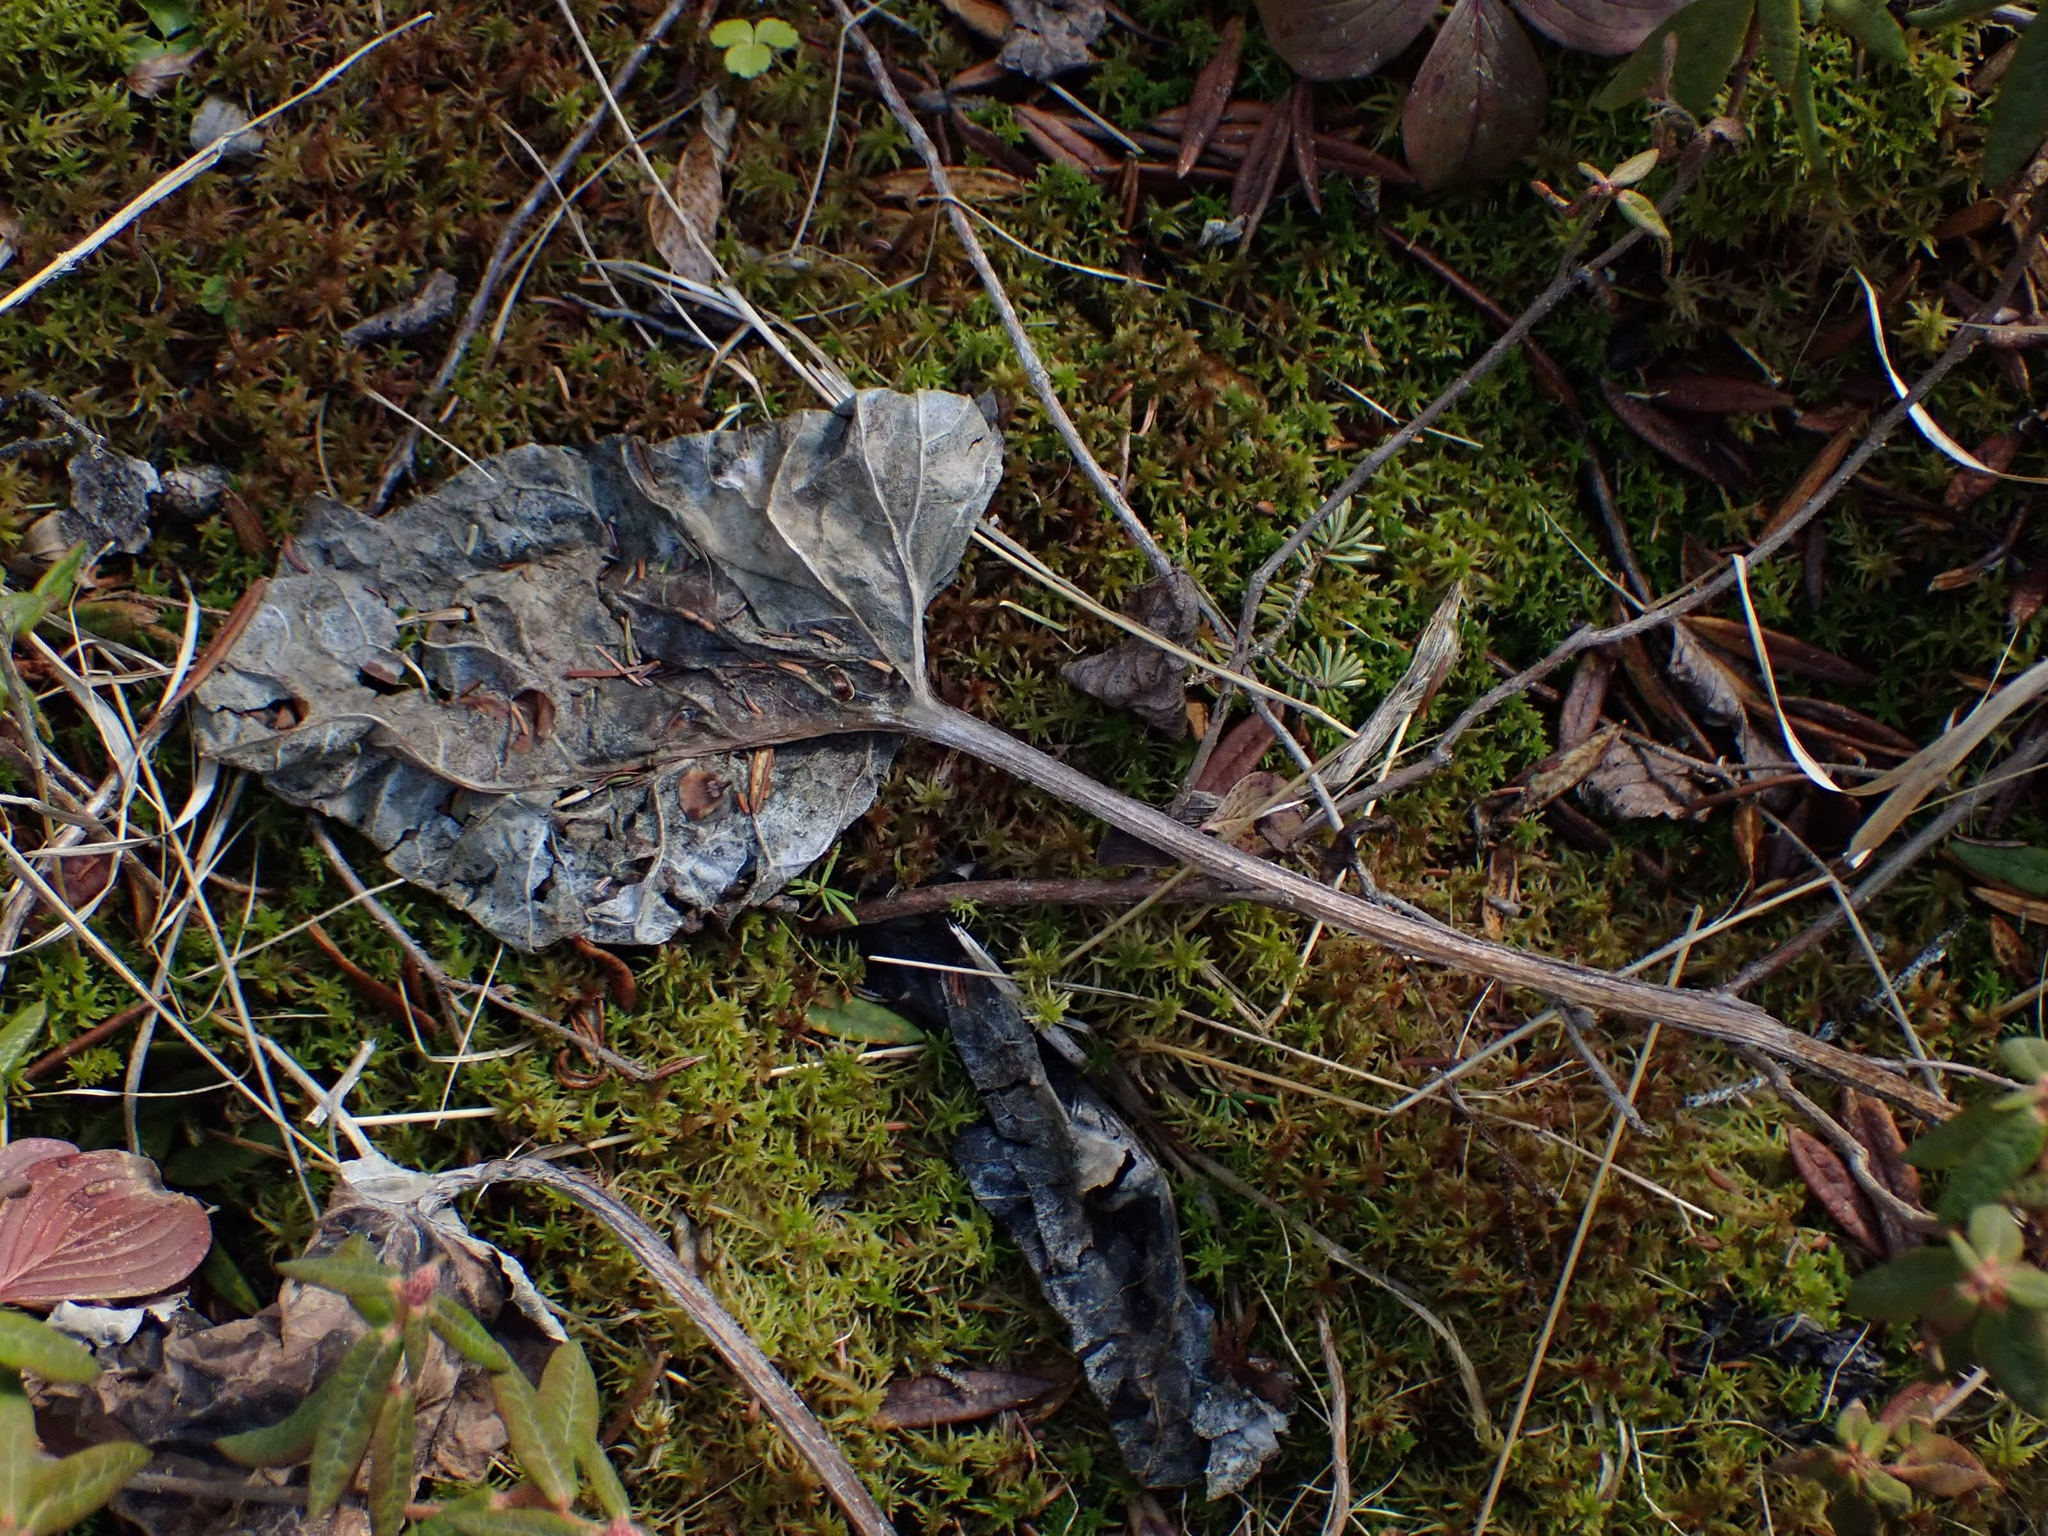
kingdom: Plantae
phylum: Tracheophyta
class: Magnoliopsida
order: Asterales
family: Asteraceae
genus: Petasites
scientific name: Petasites frigidus
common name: Arctic butterbur
